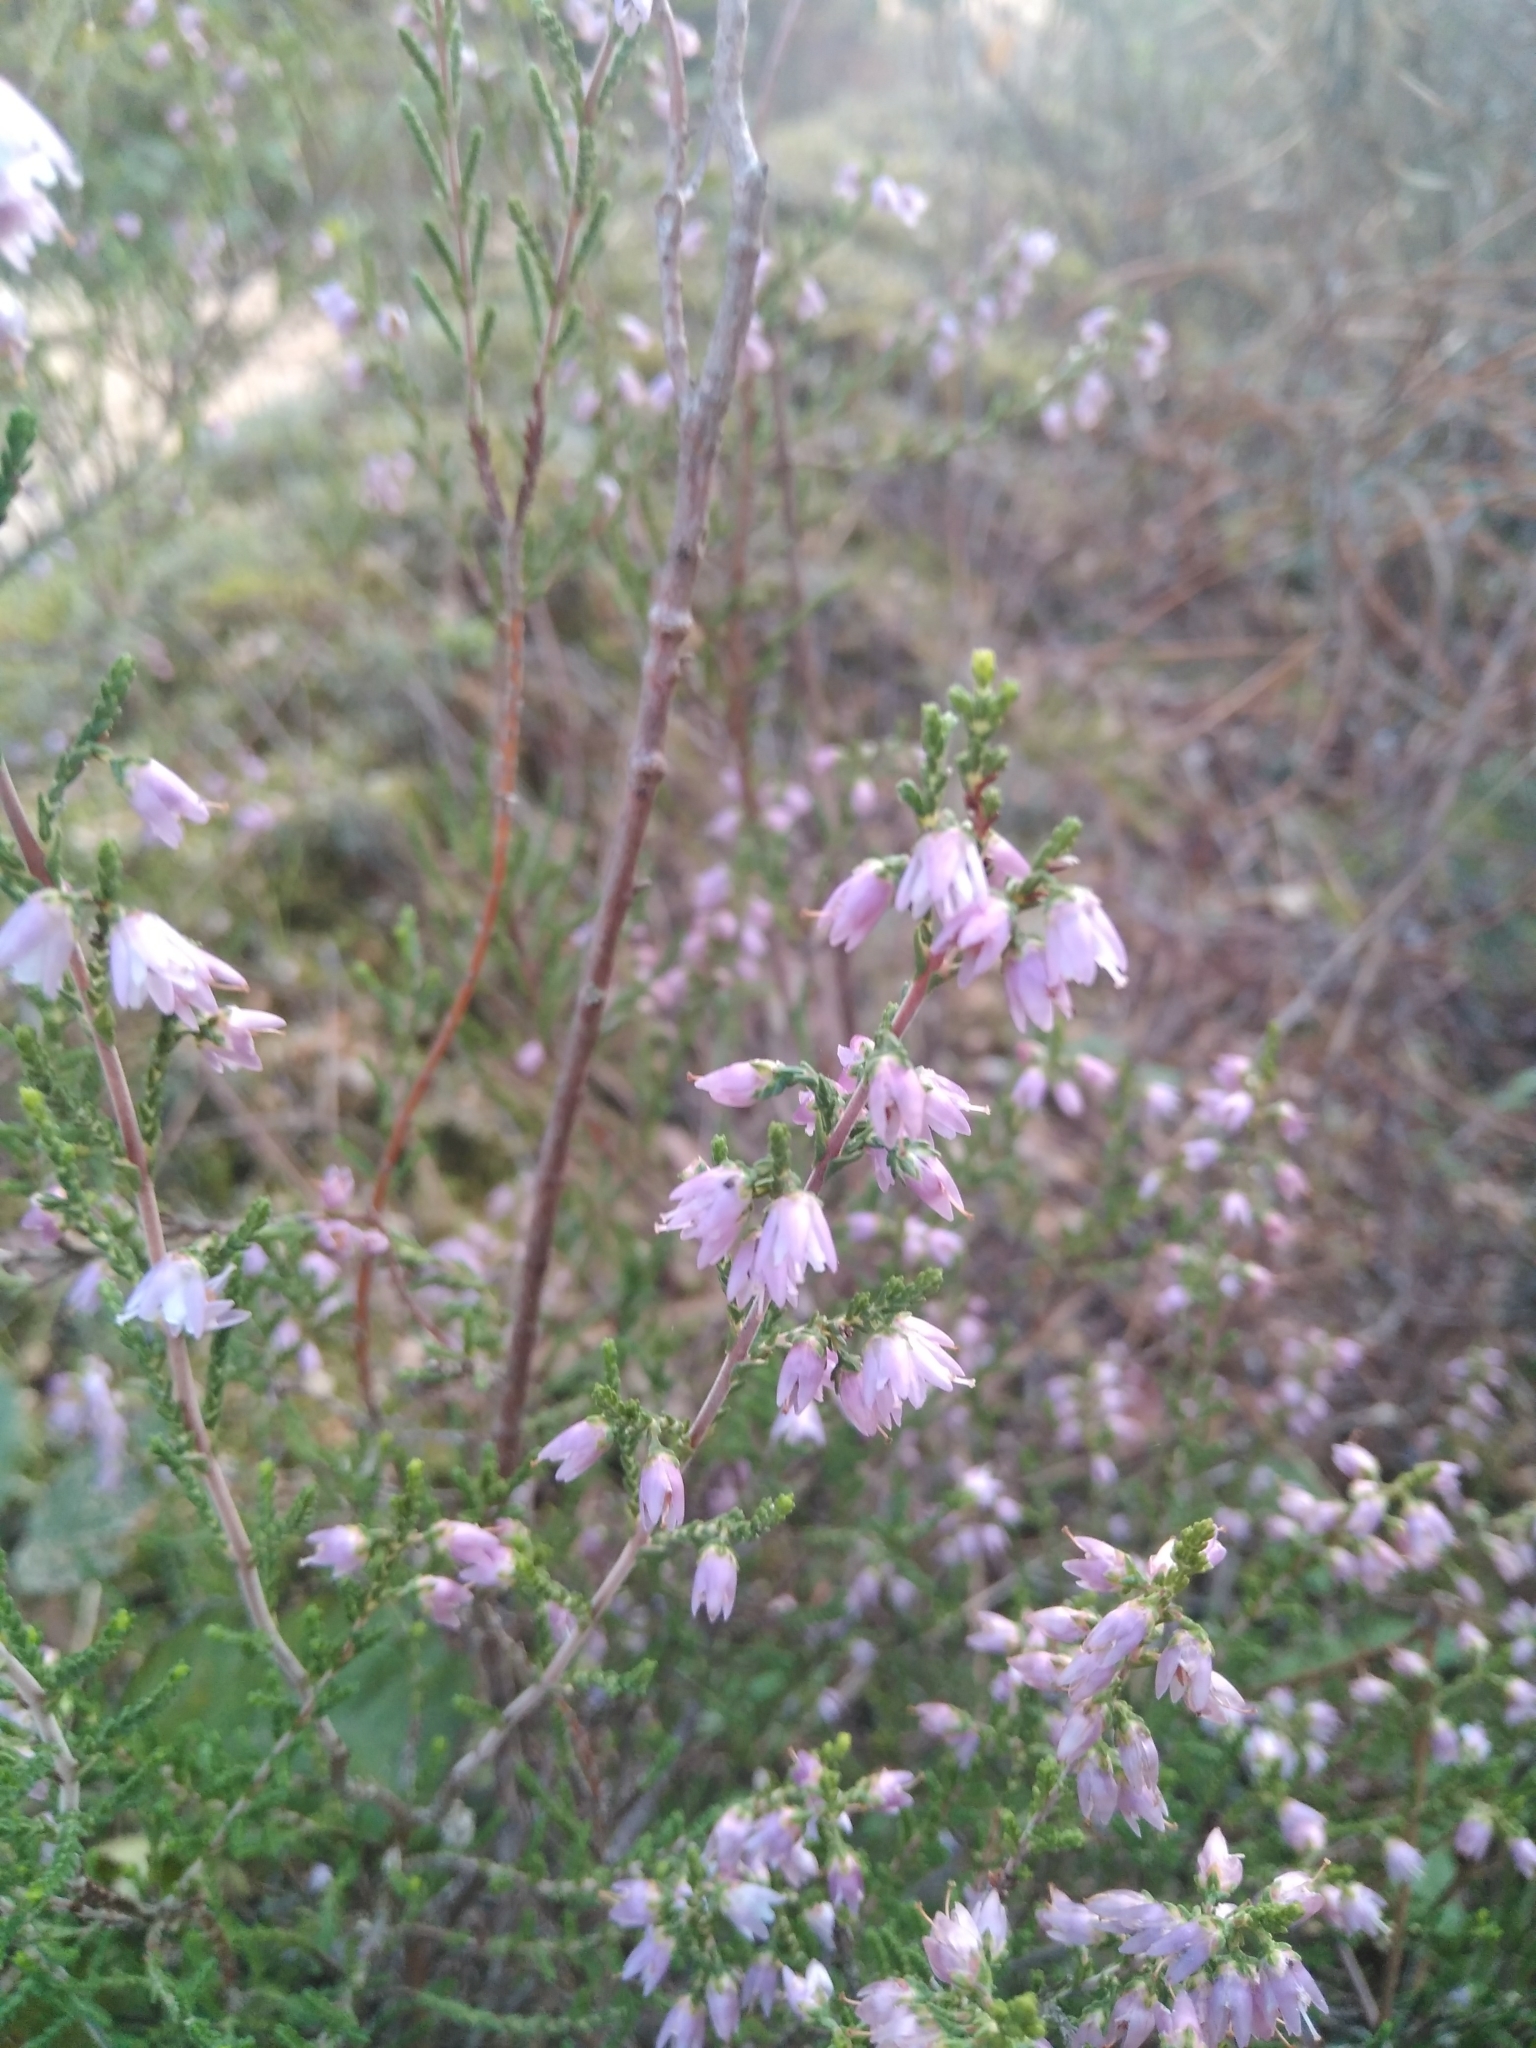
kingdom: Plantae
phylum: Tracheophyta
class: Magnoliopsida
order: Ericales
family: Ericaceae
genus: Calluna
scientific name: Calluna vulgaris
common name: Heather
